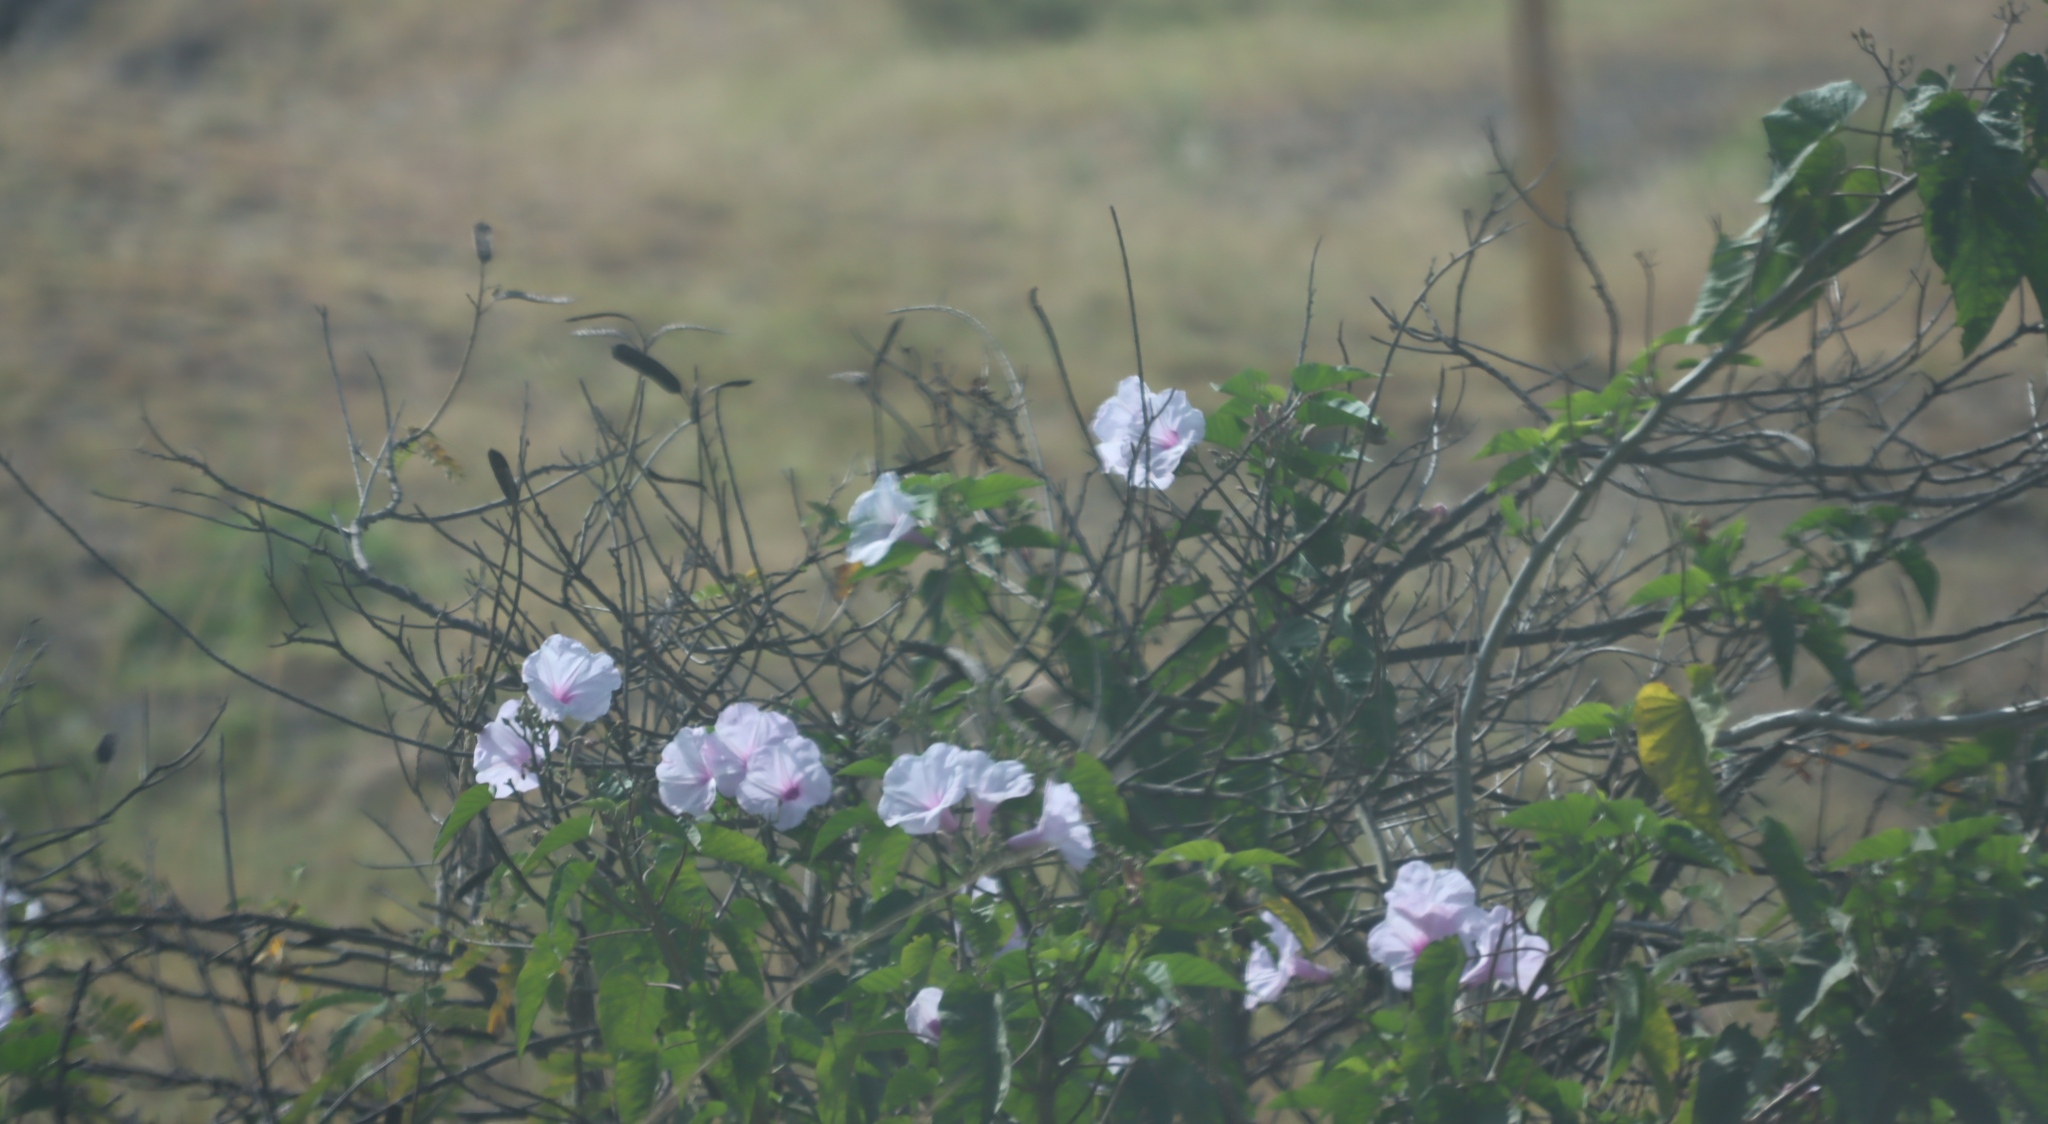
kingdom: Plantae
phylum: Tracheophyta
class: Magnoliopsida
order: Solanales
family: Convolvulaceae
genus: Ipomoea
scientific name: Ipomoea carnea
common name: Morning-glory
